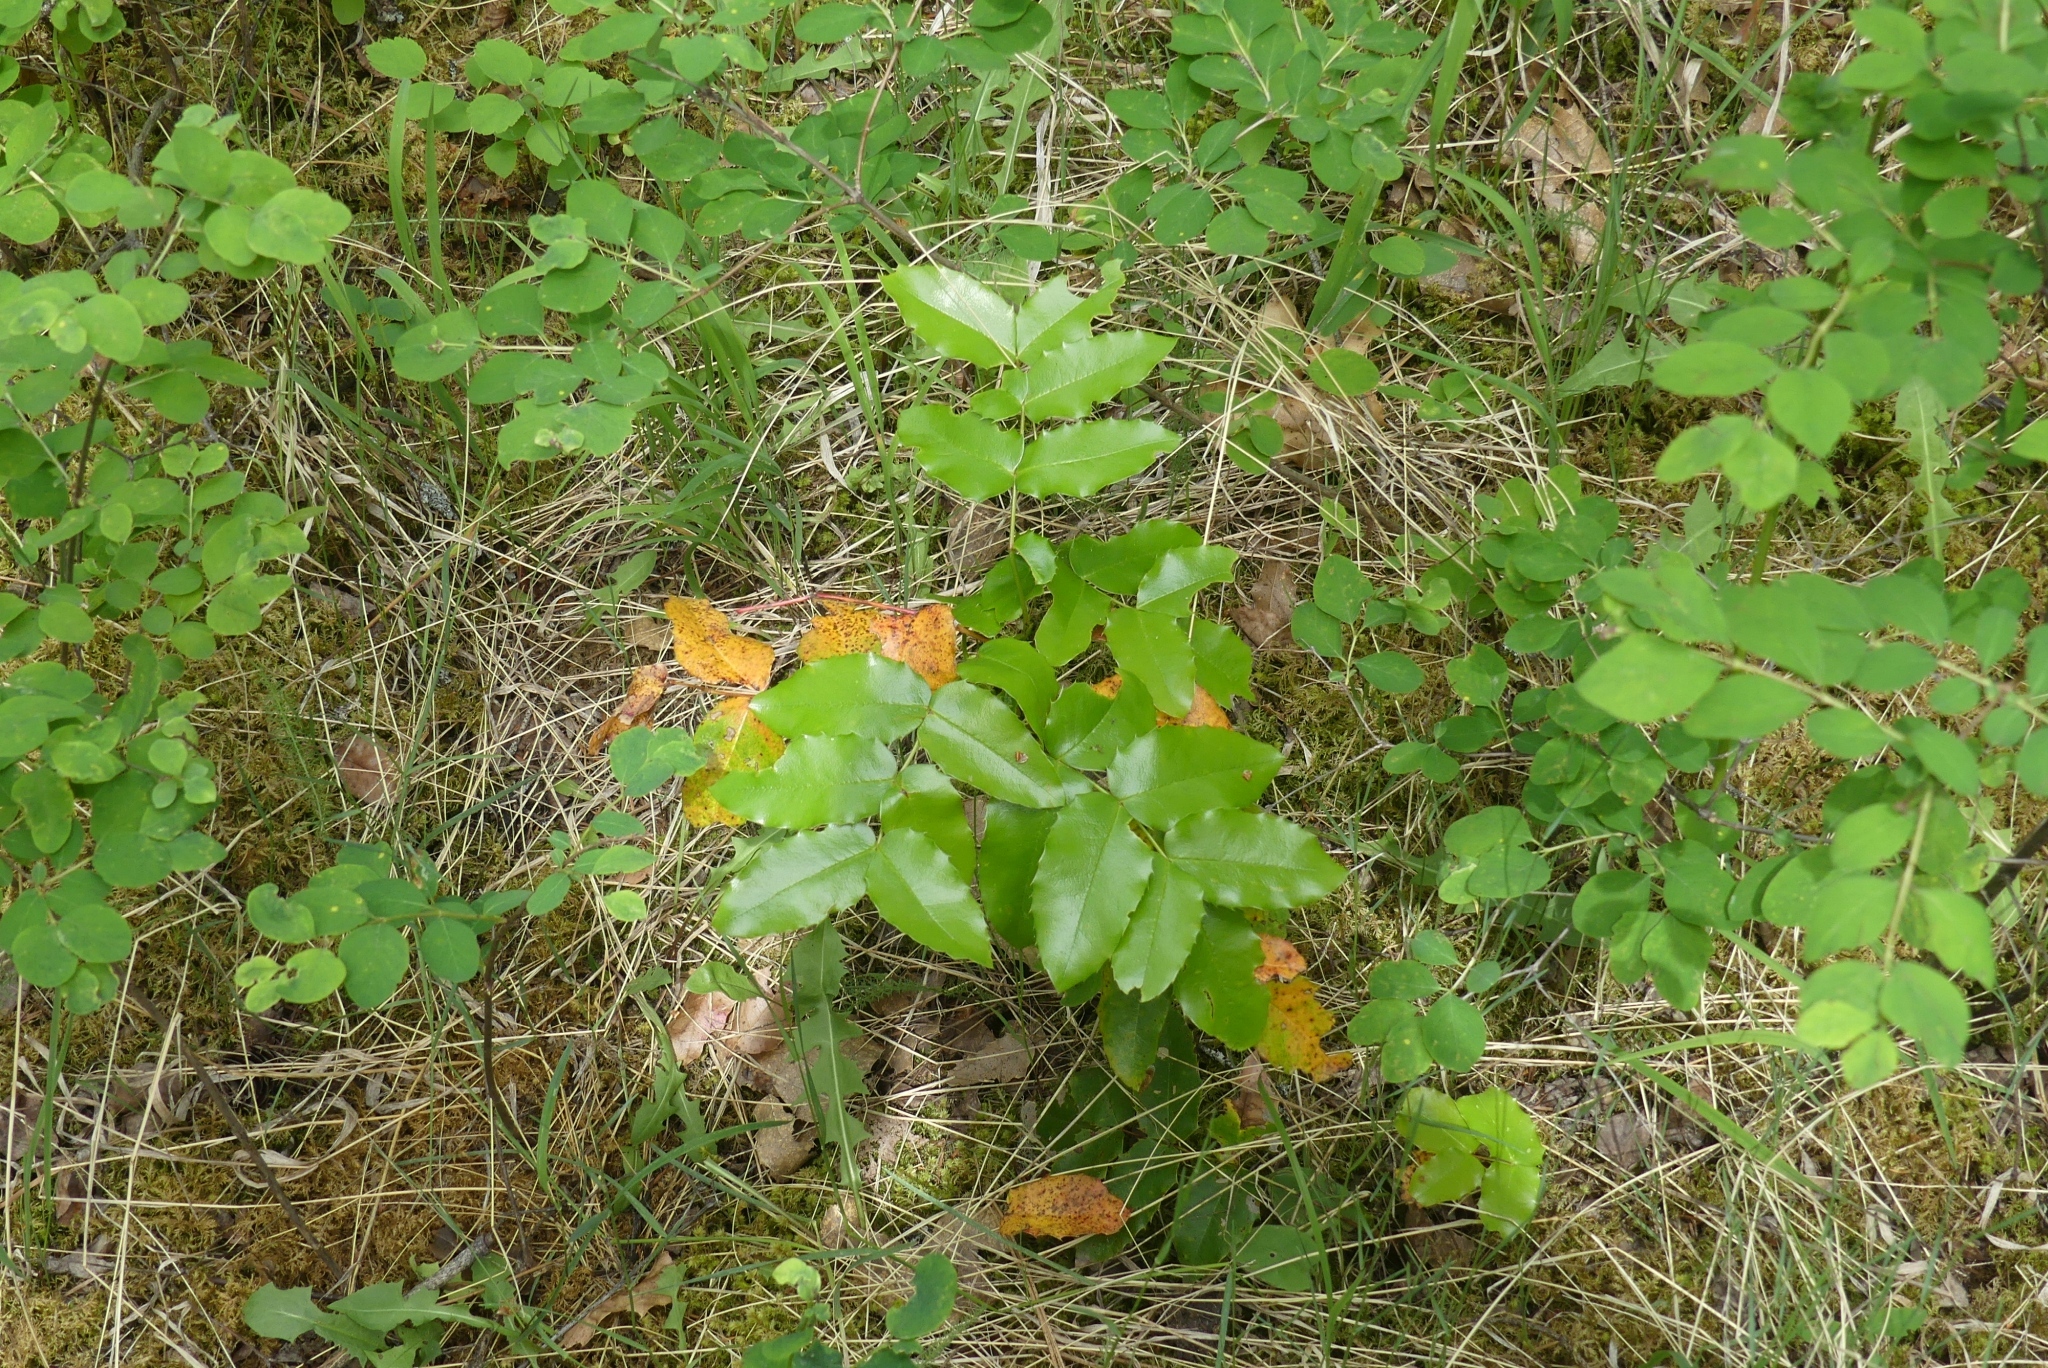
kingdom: Plantae
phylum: Tracheophyta
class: Magnoliopsida
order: Ranunculales
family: Berberidaceae
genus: Mahonia
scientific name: Mahonia aquifolium
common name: Oregon-grape
